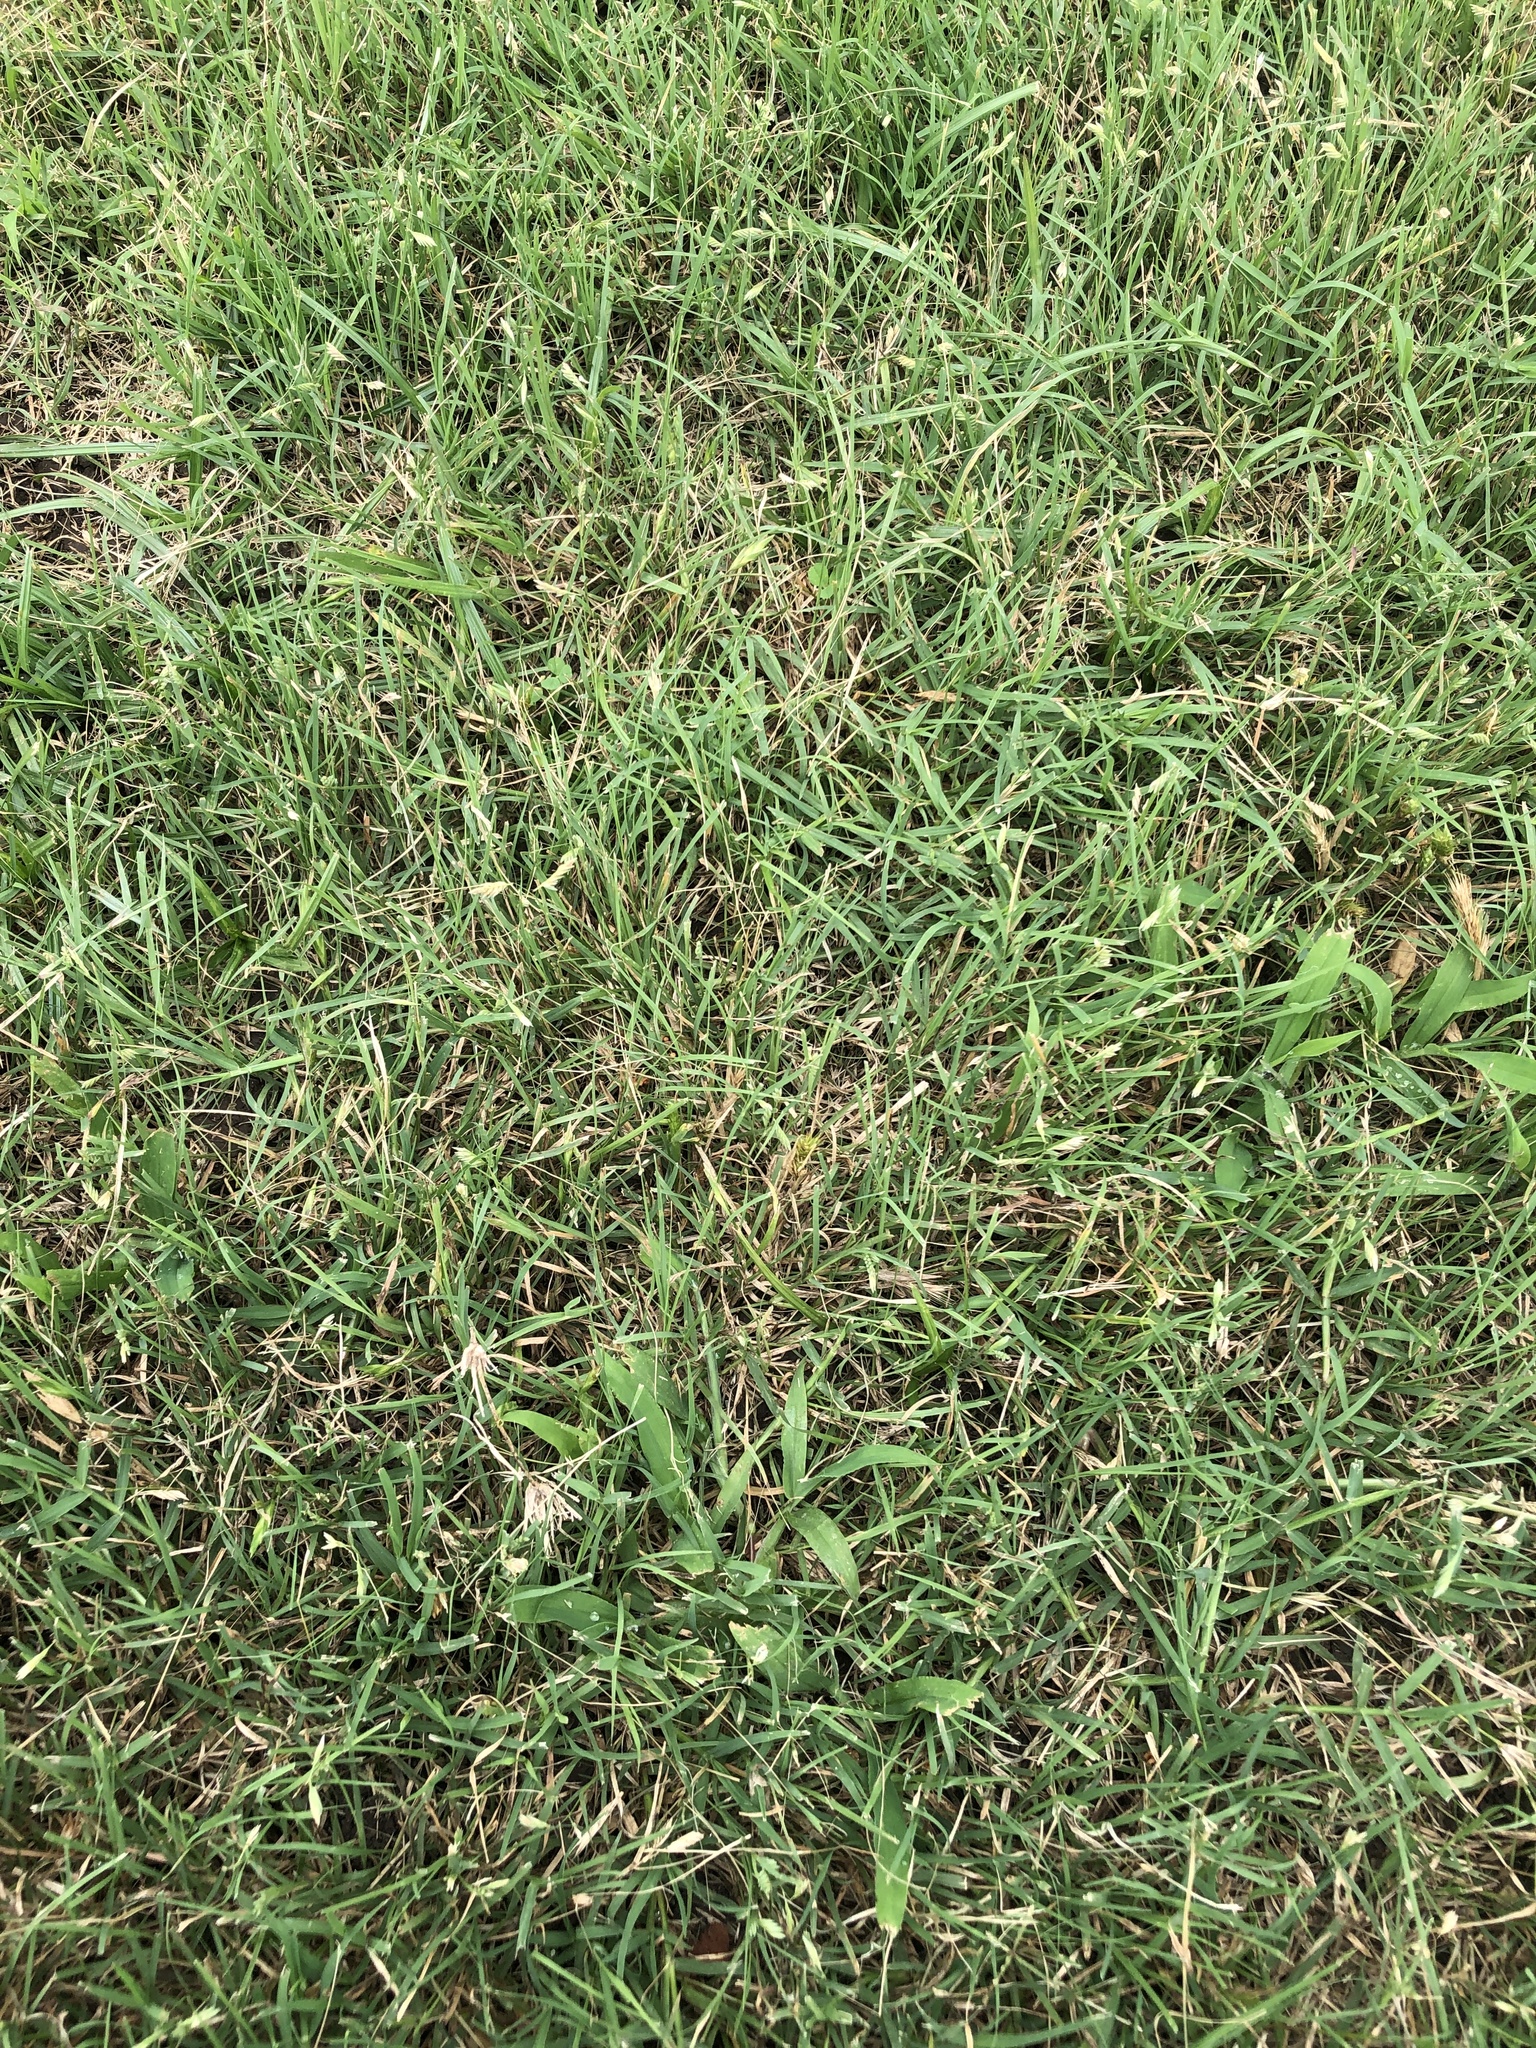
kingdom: Plantae
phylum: Tracheophyta
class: Liliopsida
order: Poales
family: Poaceae
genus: Bouteloua
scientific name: Bouteloua dactyloides
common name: Buffalo grass
